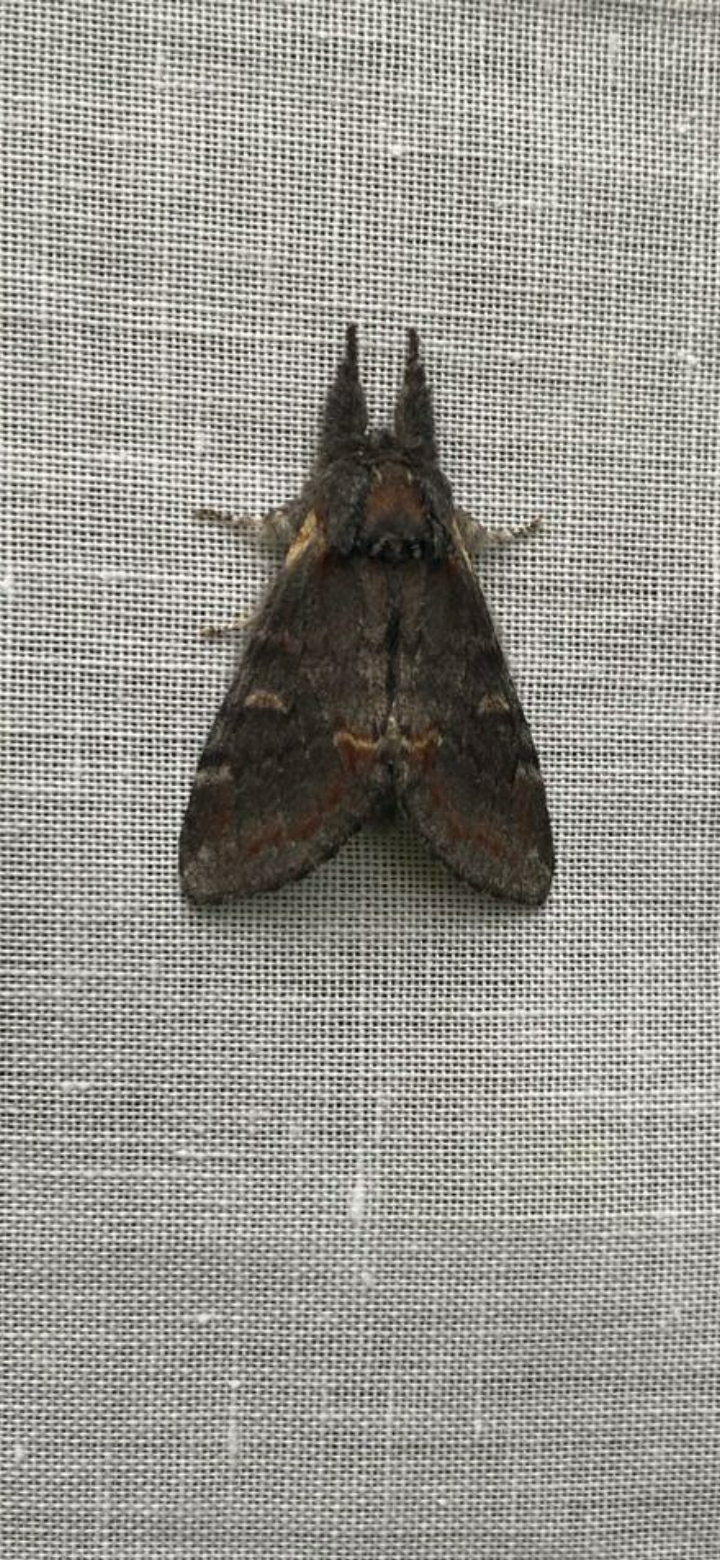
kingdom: Animalia
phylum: Arthropoda
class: Insecta
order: Lepidoptera
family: Notodontidae
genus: Notodonta
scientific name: Notodonta dromedarius
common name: Iron prominent
